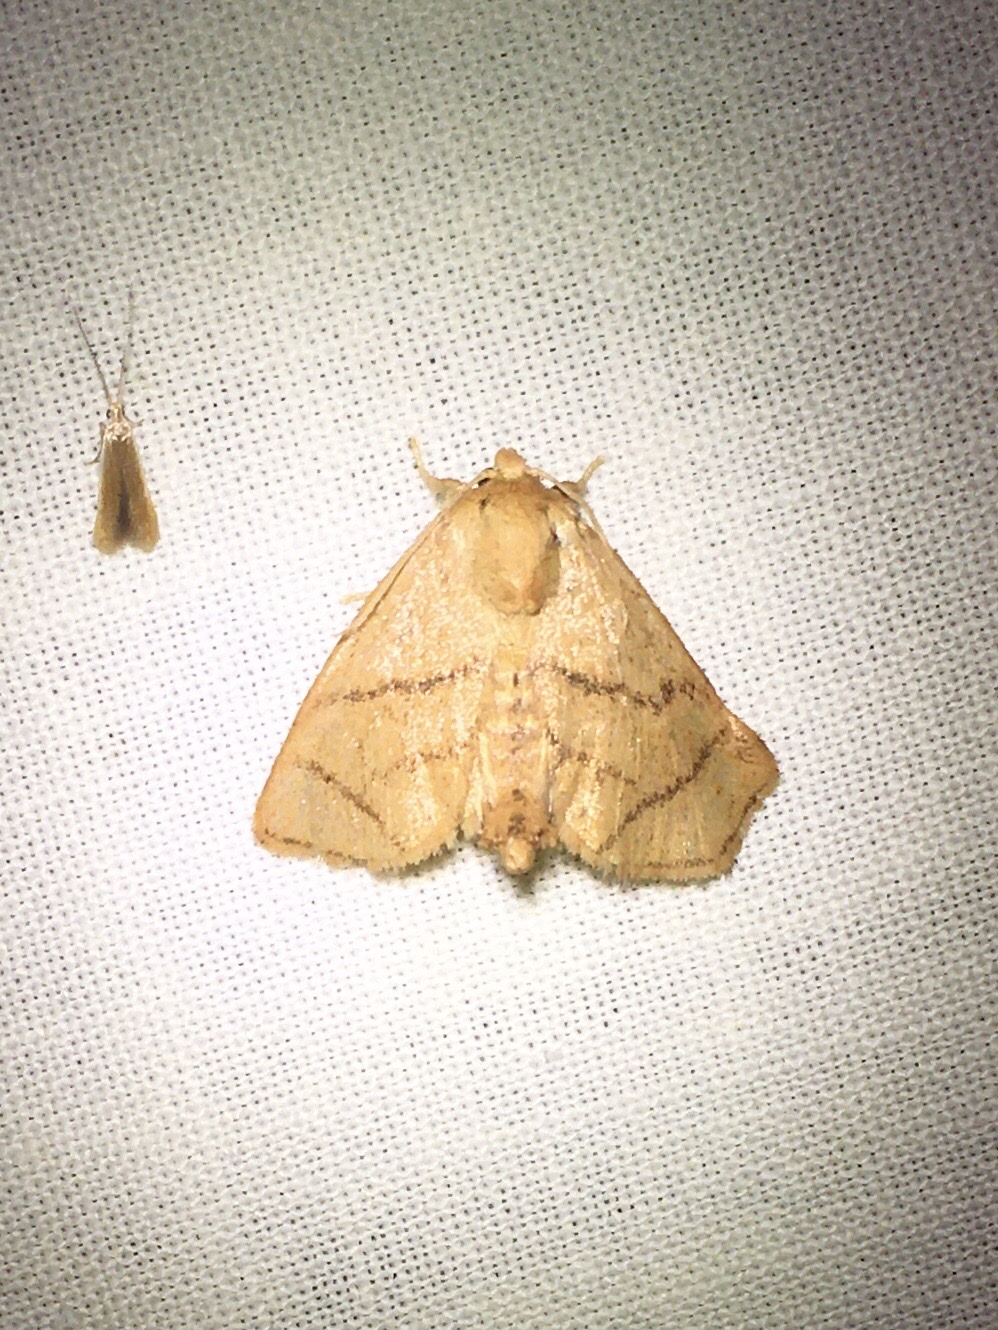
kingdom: Animalia
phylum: Arthropoda
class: Insecta
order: Lepidoptera
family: Limacodidae
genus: Apoda
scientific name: Apoda y-inversa
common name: Yellow-collared slug moth
